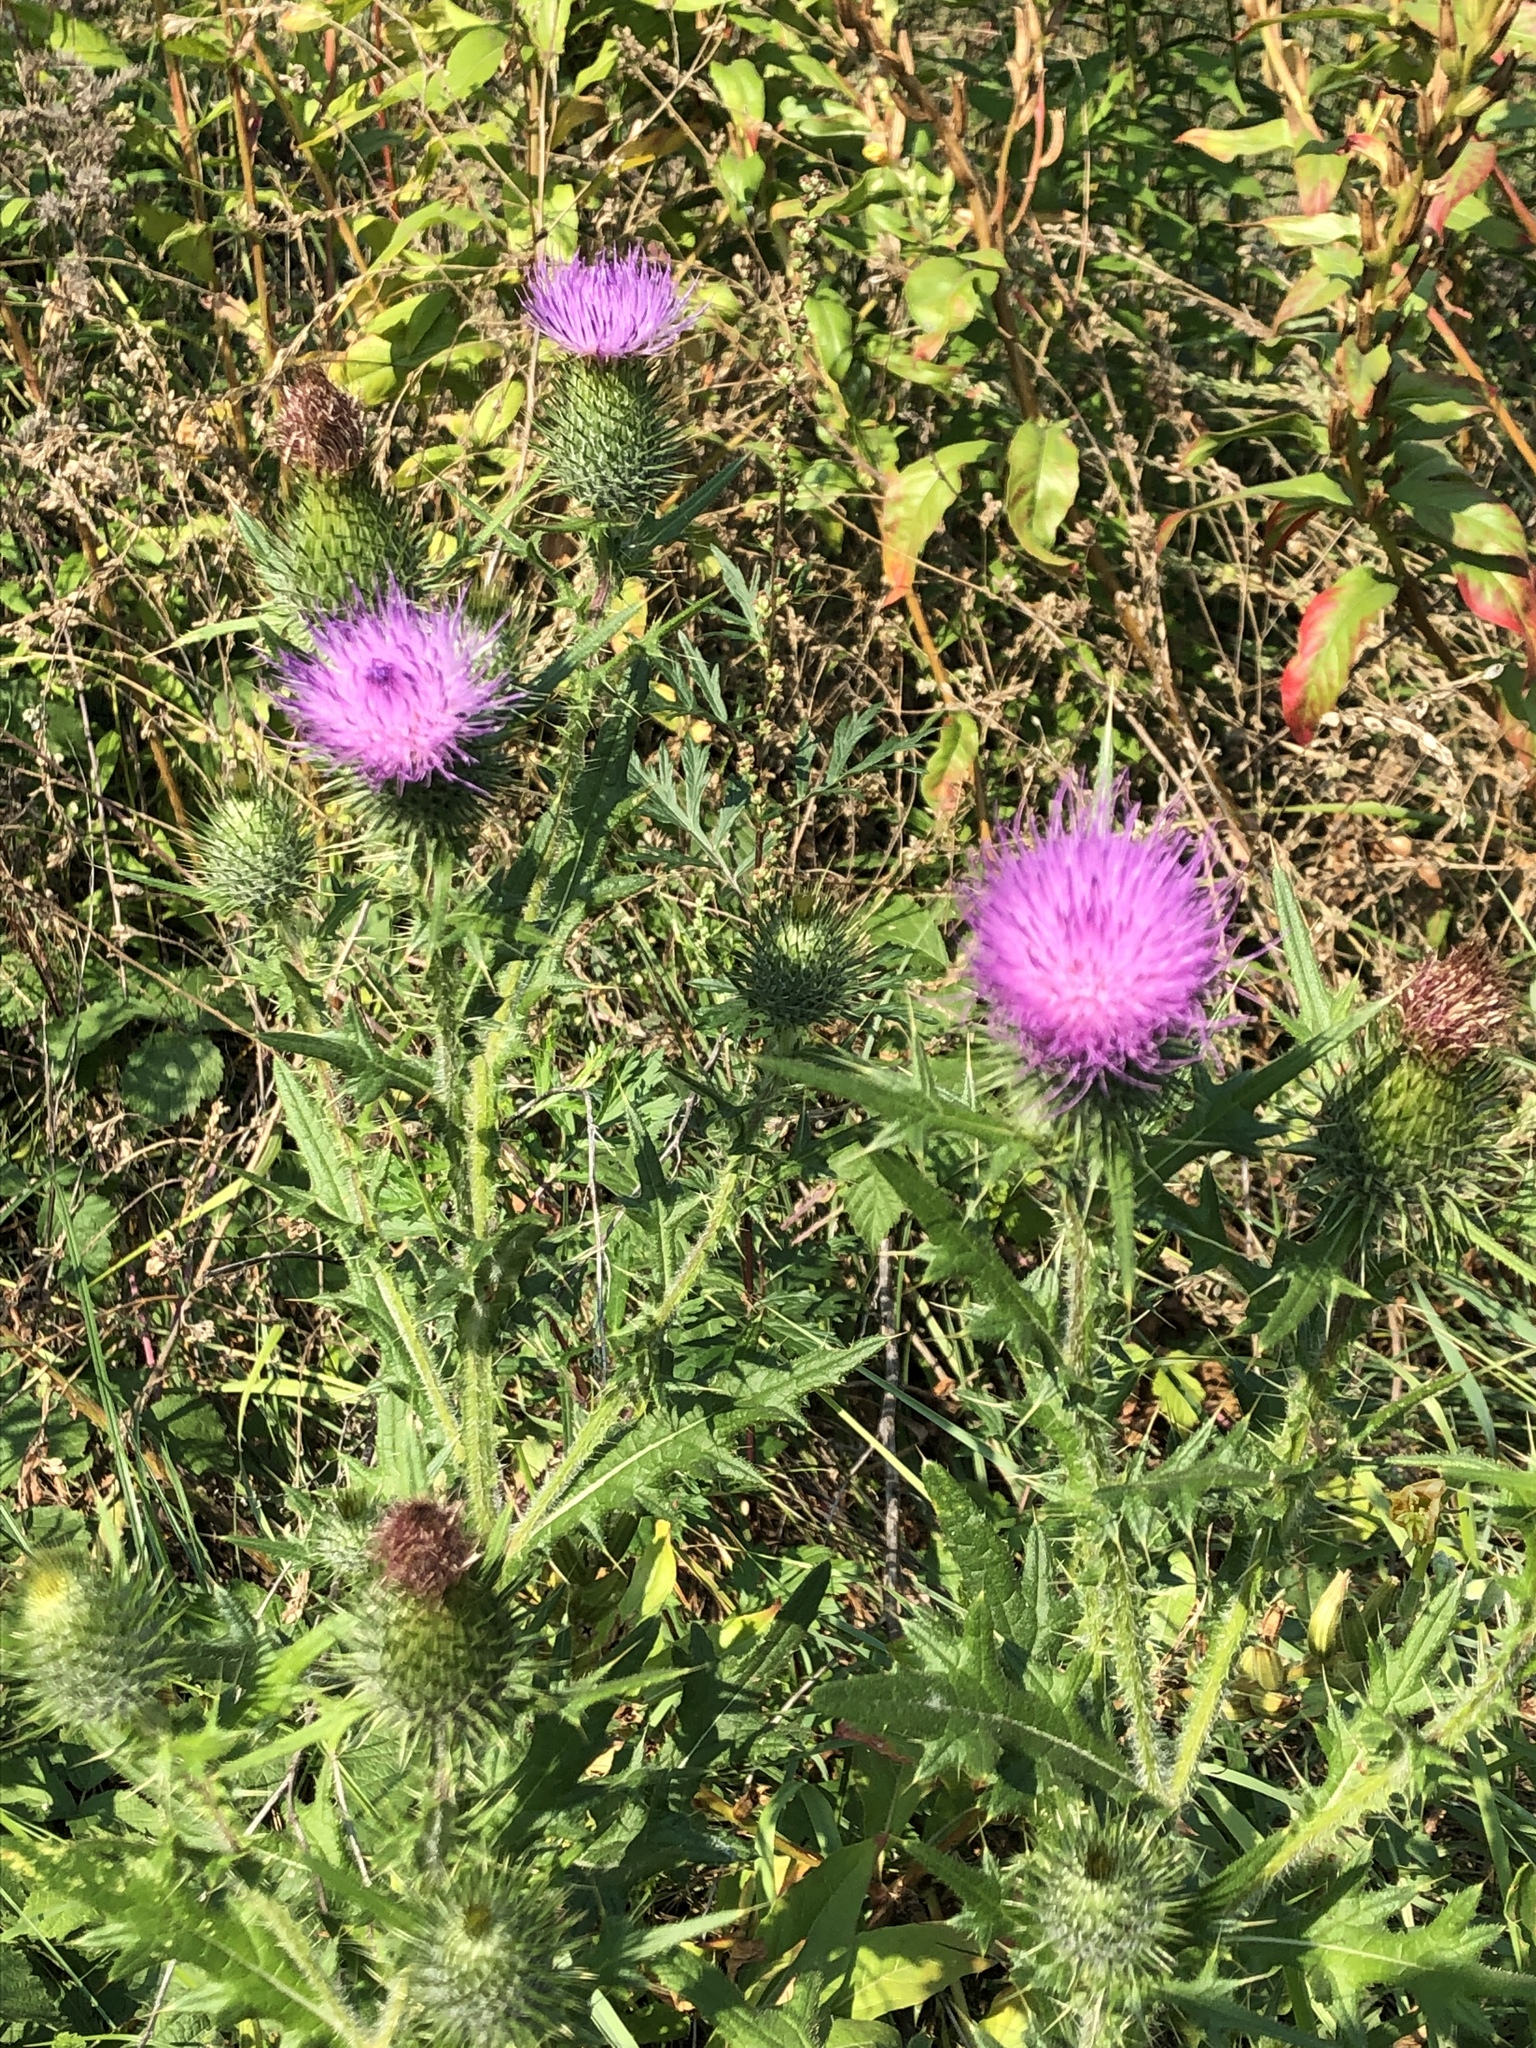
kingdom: Plantae
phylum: Tracheophyta
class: Magnoliopsida
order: Asterales
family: Asteraceae
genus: Cirsium
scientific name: Cirsium vulgare
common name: Bull thistle
